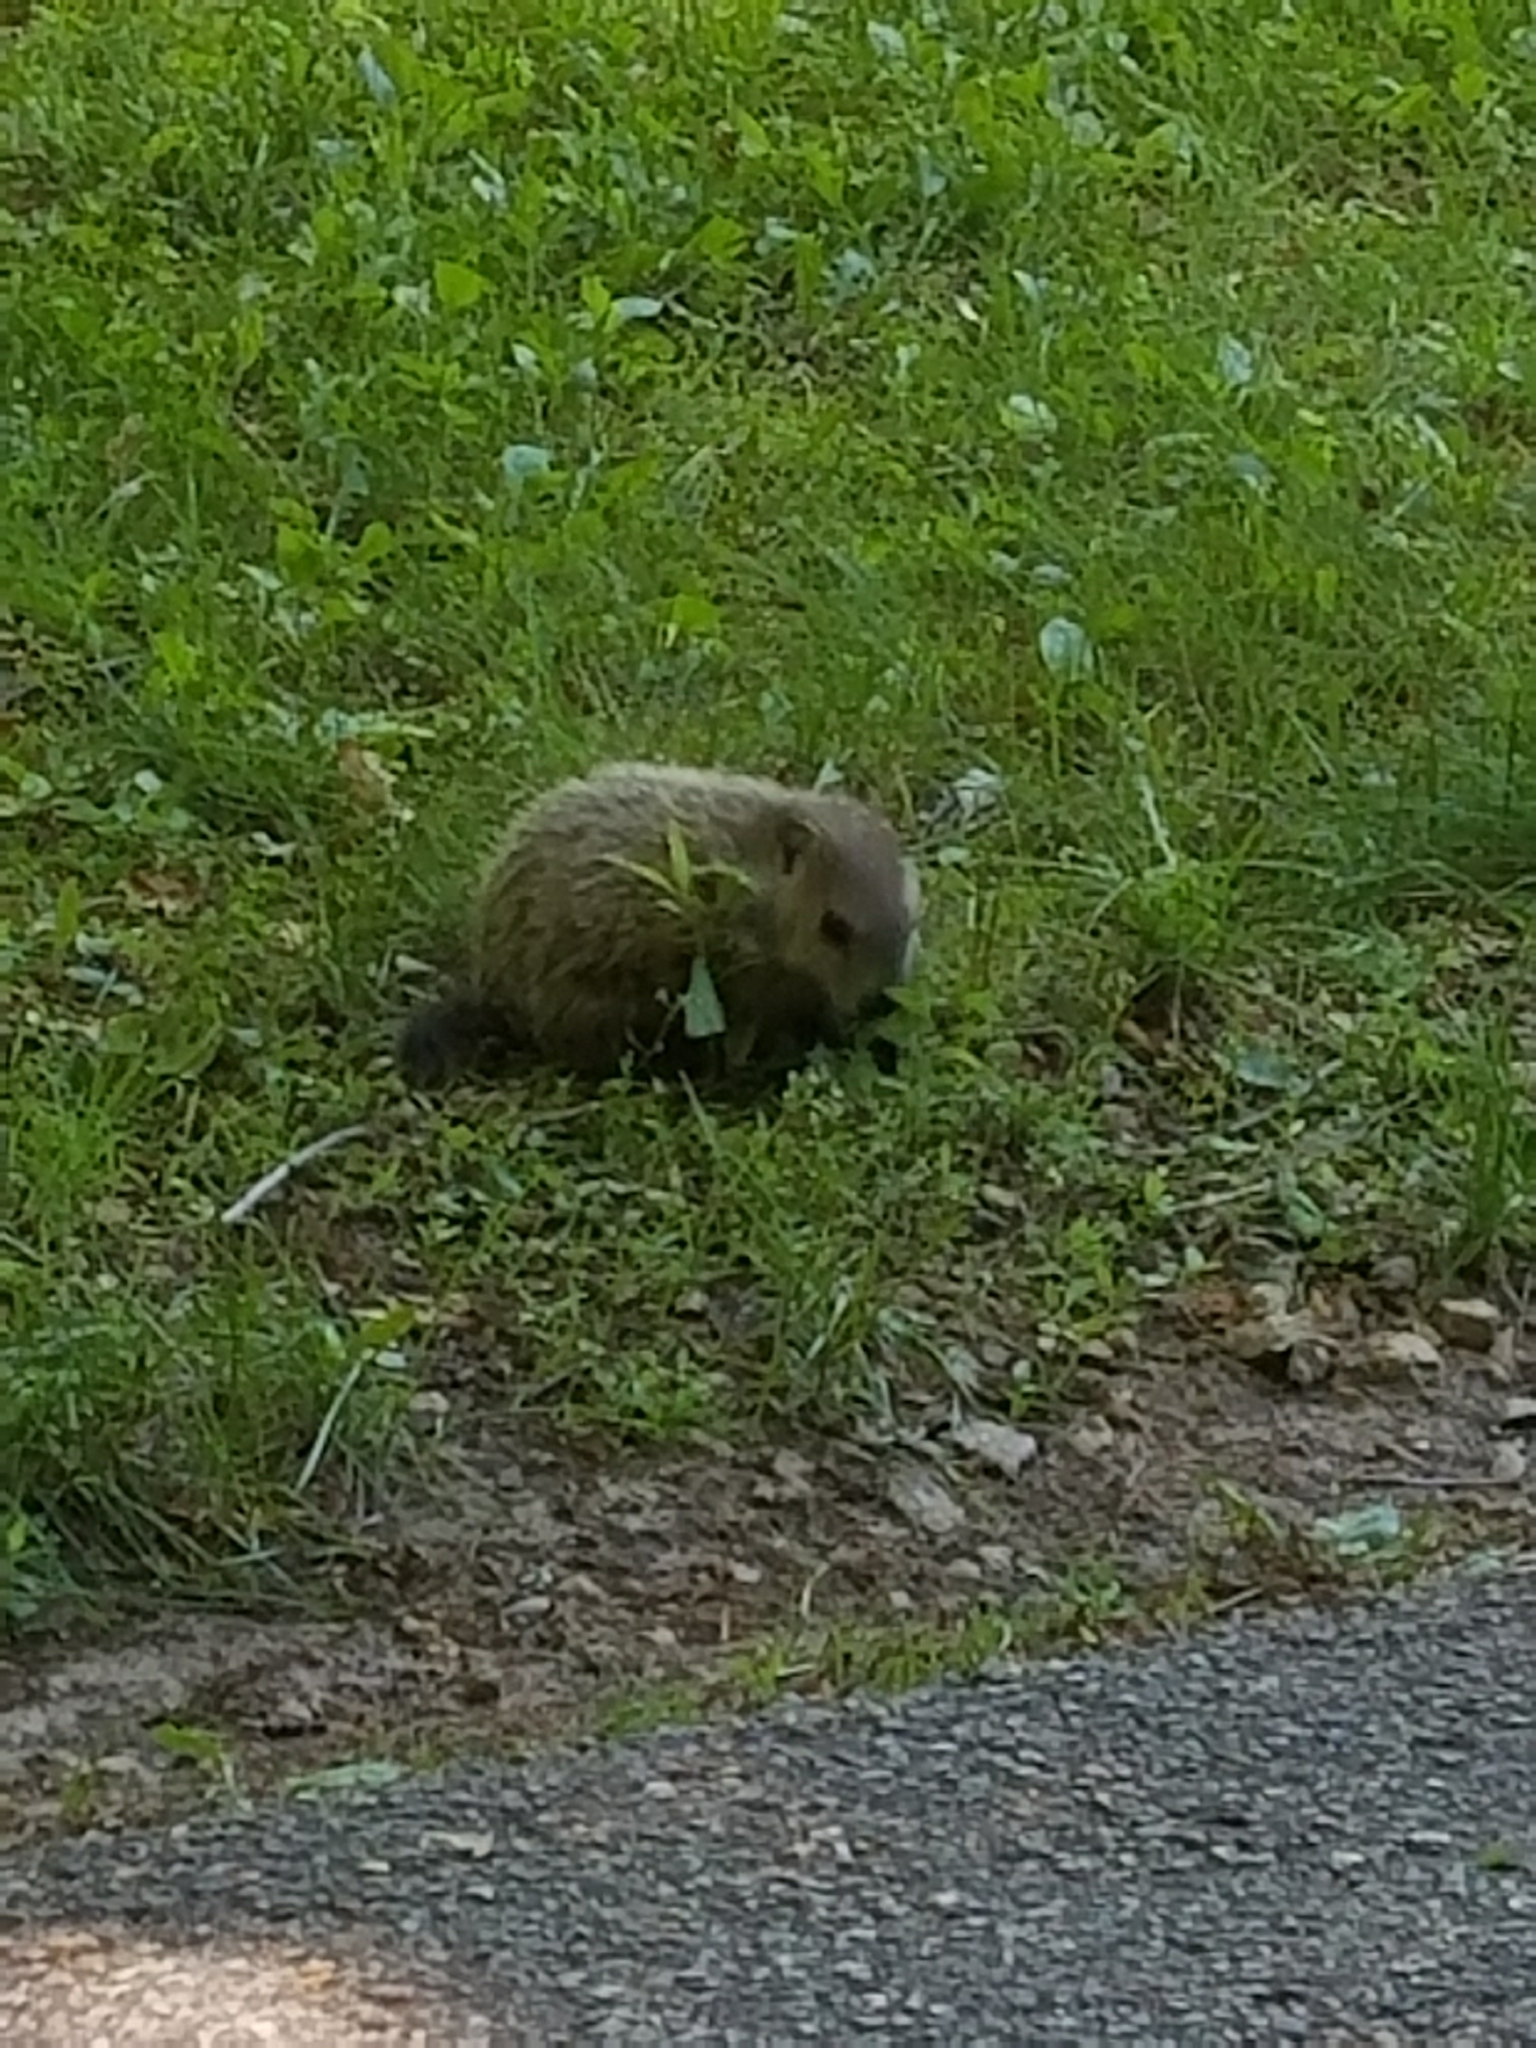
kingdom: Animalia
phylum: Chordata
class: Mammalia
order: Rodentia
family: Sciuridae
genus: Marmota
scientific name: Marmota monax
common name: Groundhog
